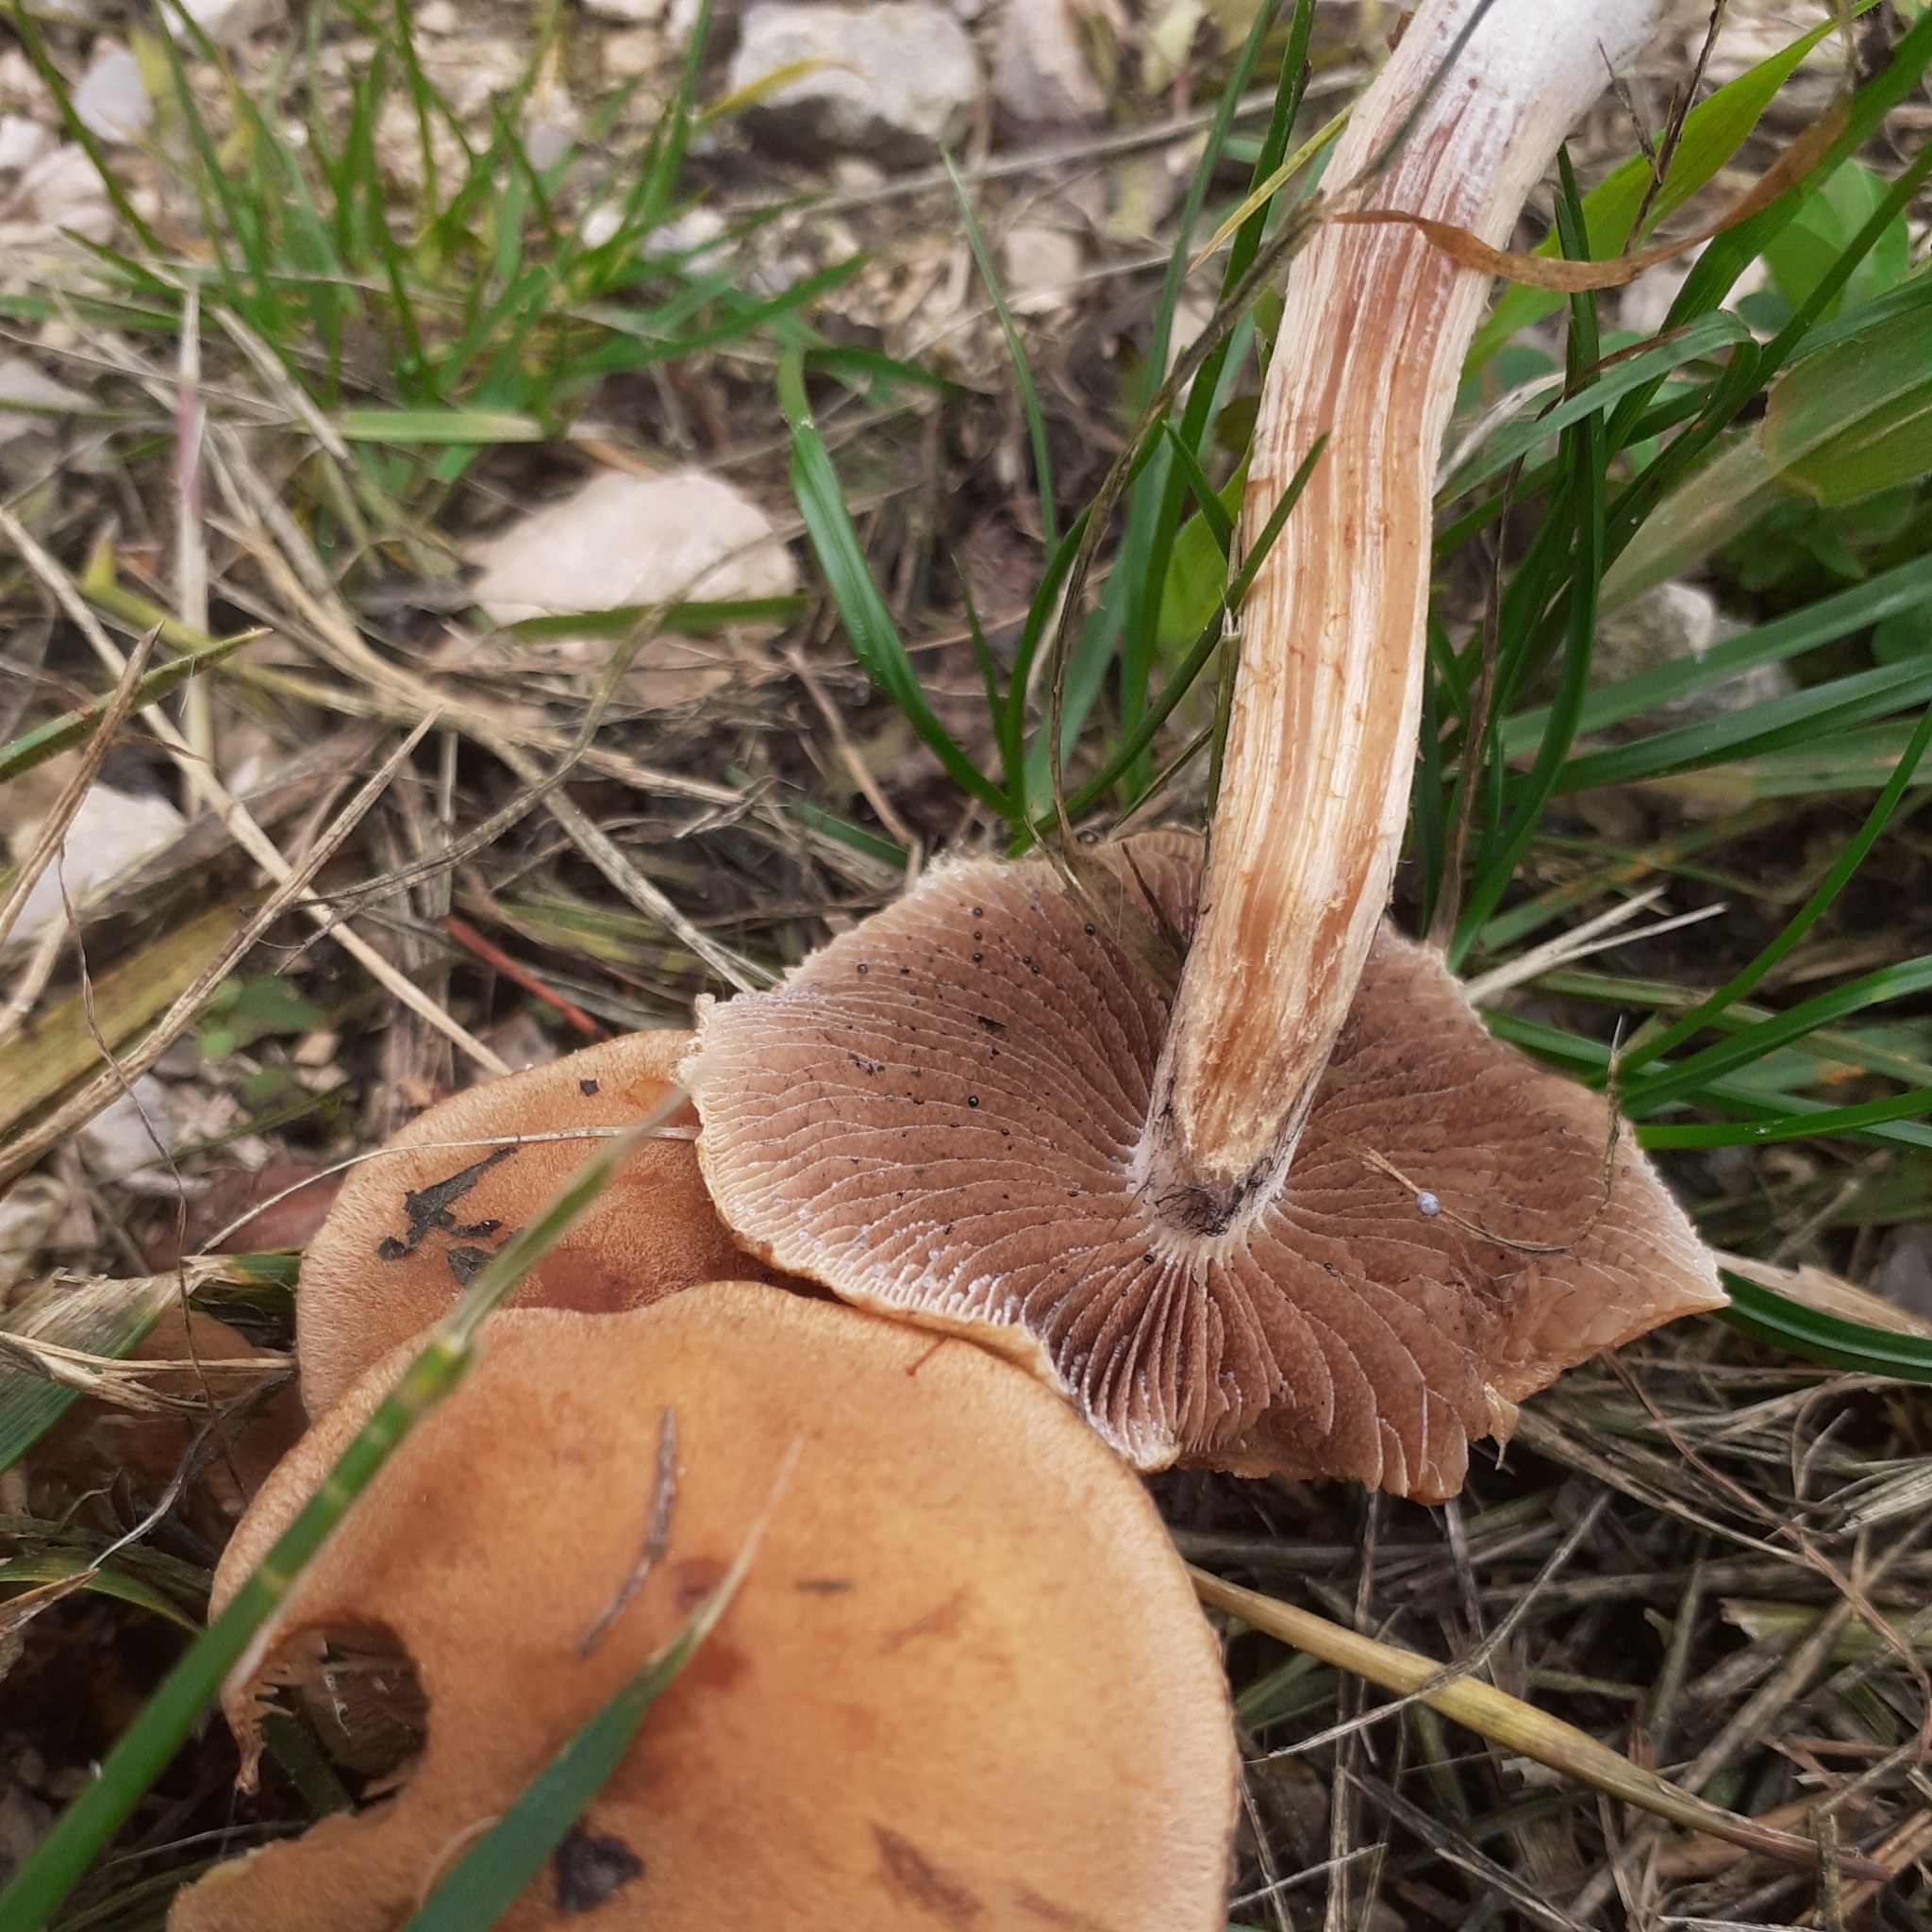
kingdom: Fungi
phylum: Basidiomycota
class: Agaricomycetes
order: Agaricales
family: Psathyrellaceae
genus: Lacrymaria
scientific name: Lacrymaria lacrymabunda
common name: Weeping widow
